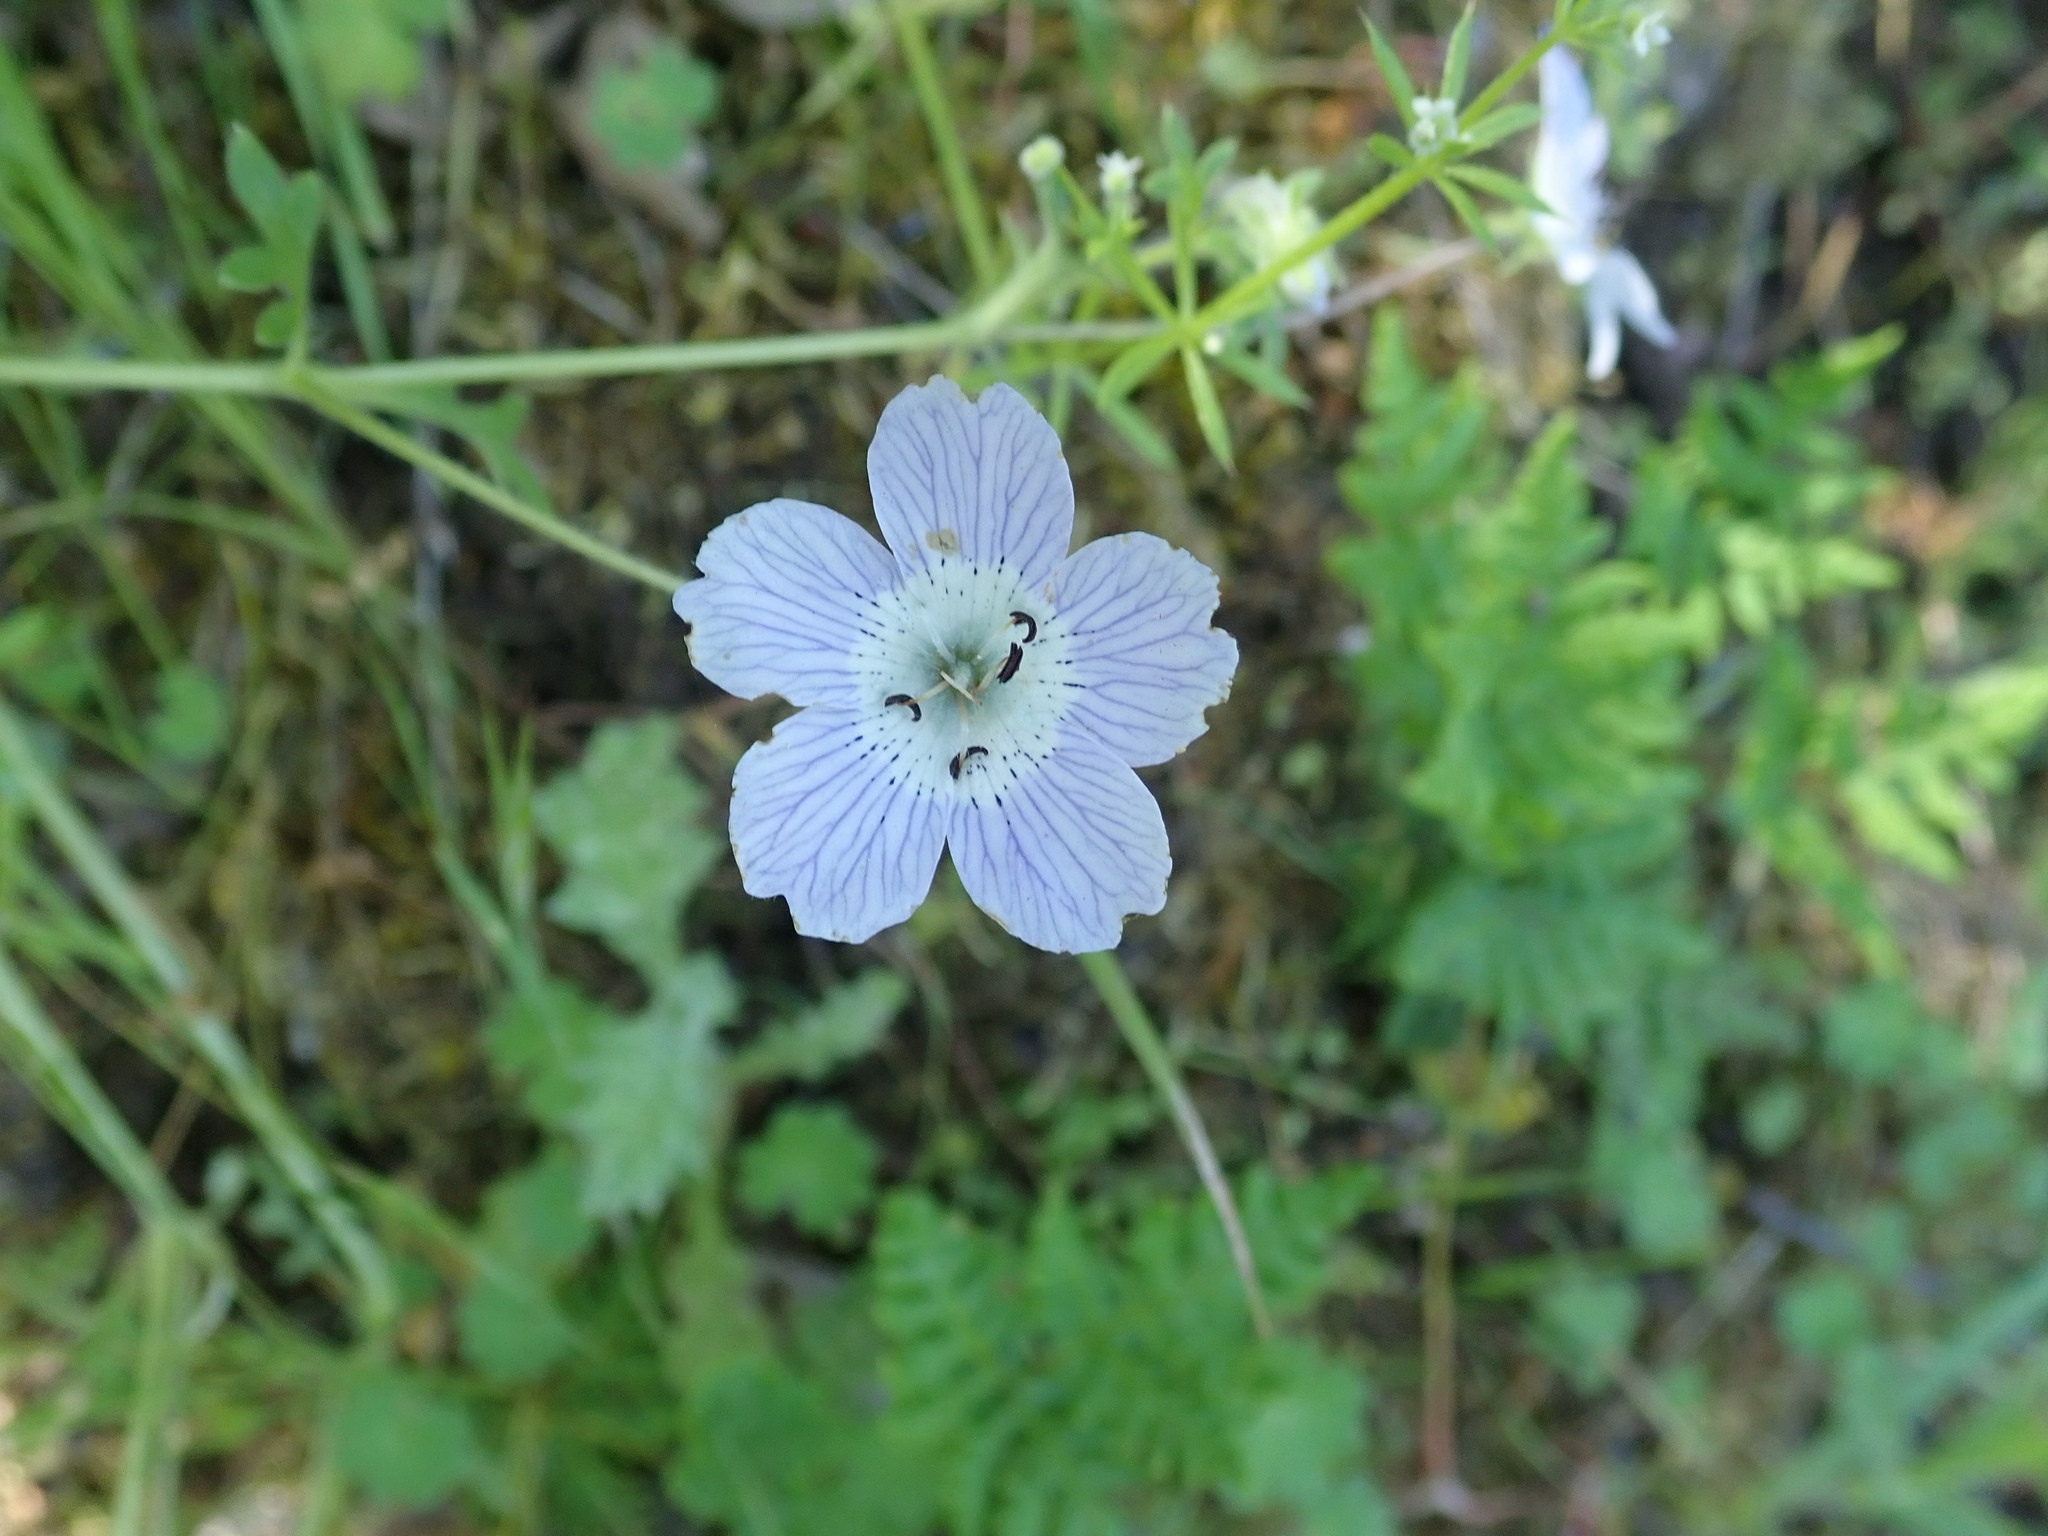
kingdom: Plantae
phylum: Tracheophyta
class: Magnoliopsida
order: Boraginales
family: Hydrophyllaceae
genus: Nemophila
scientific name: Nemophila menziesii
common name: Baby's-blue-eyes
